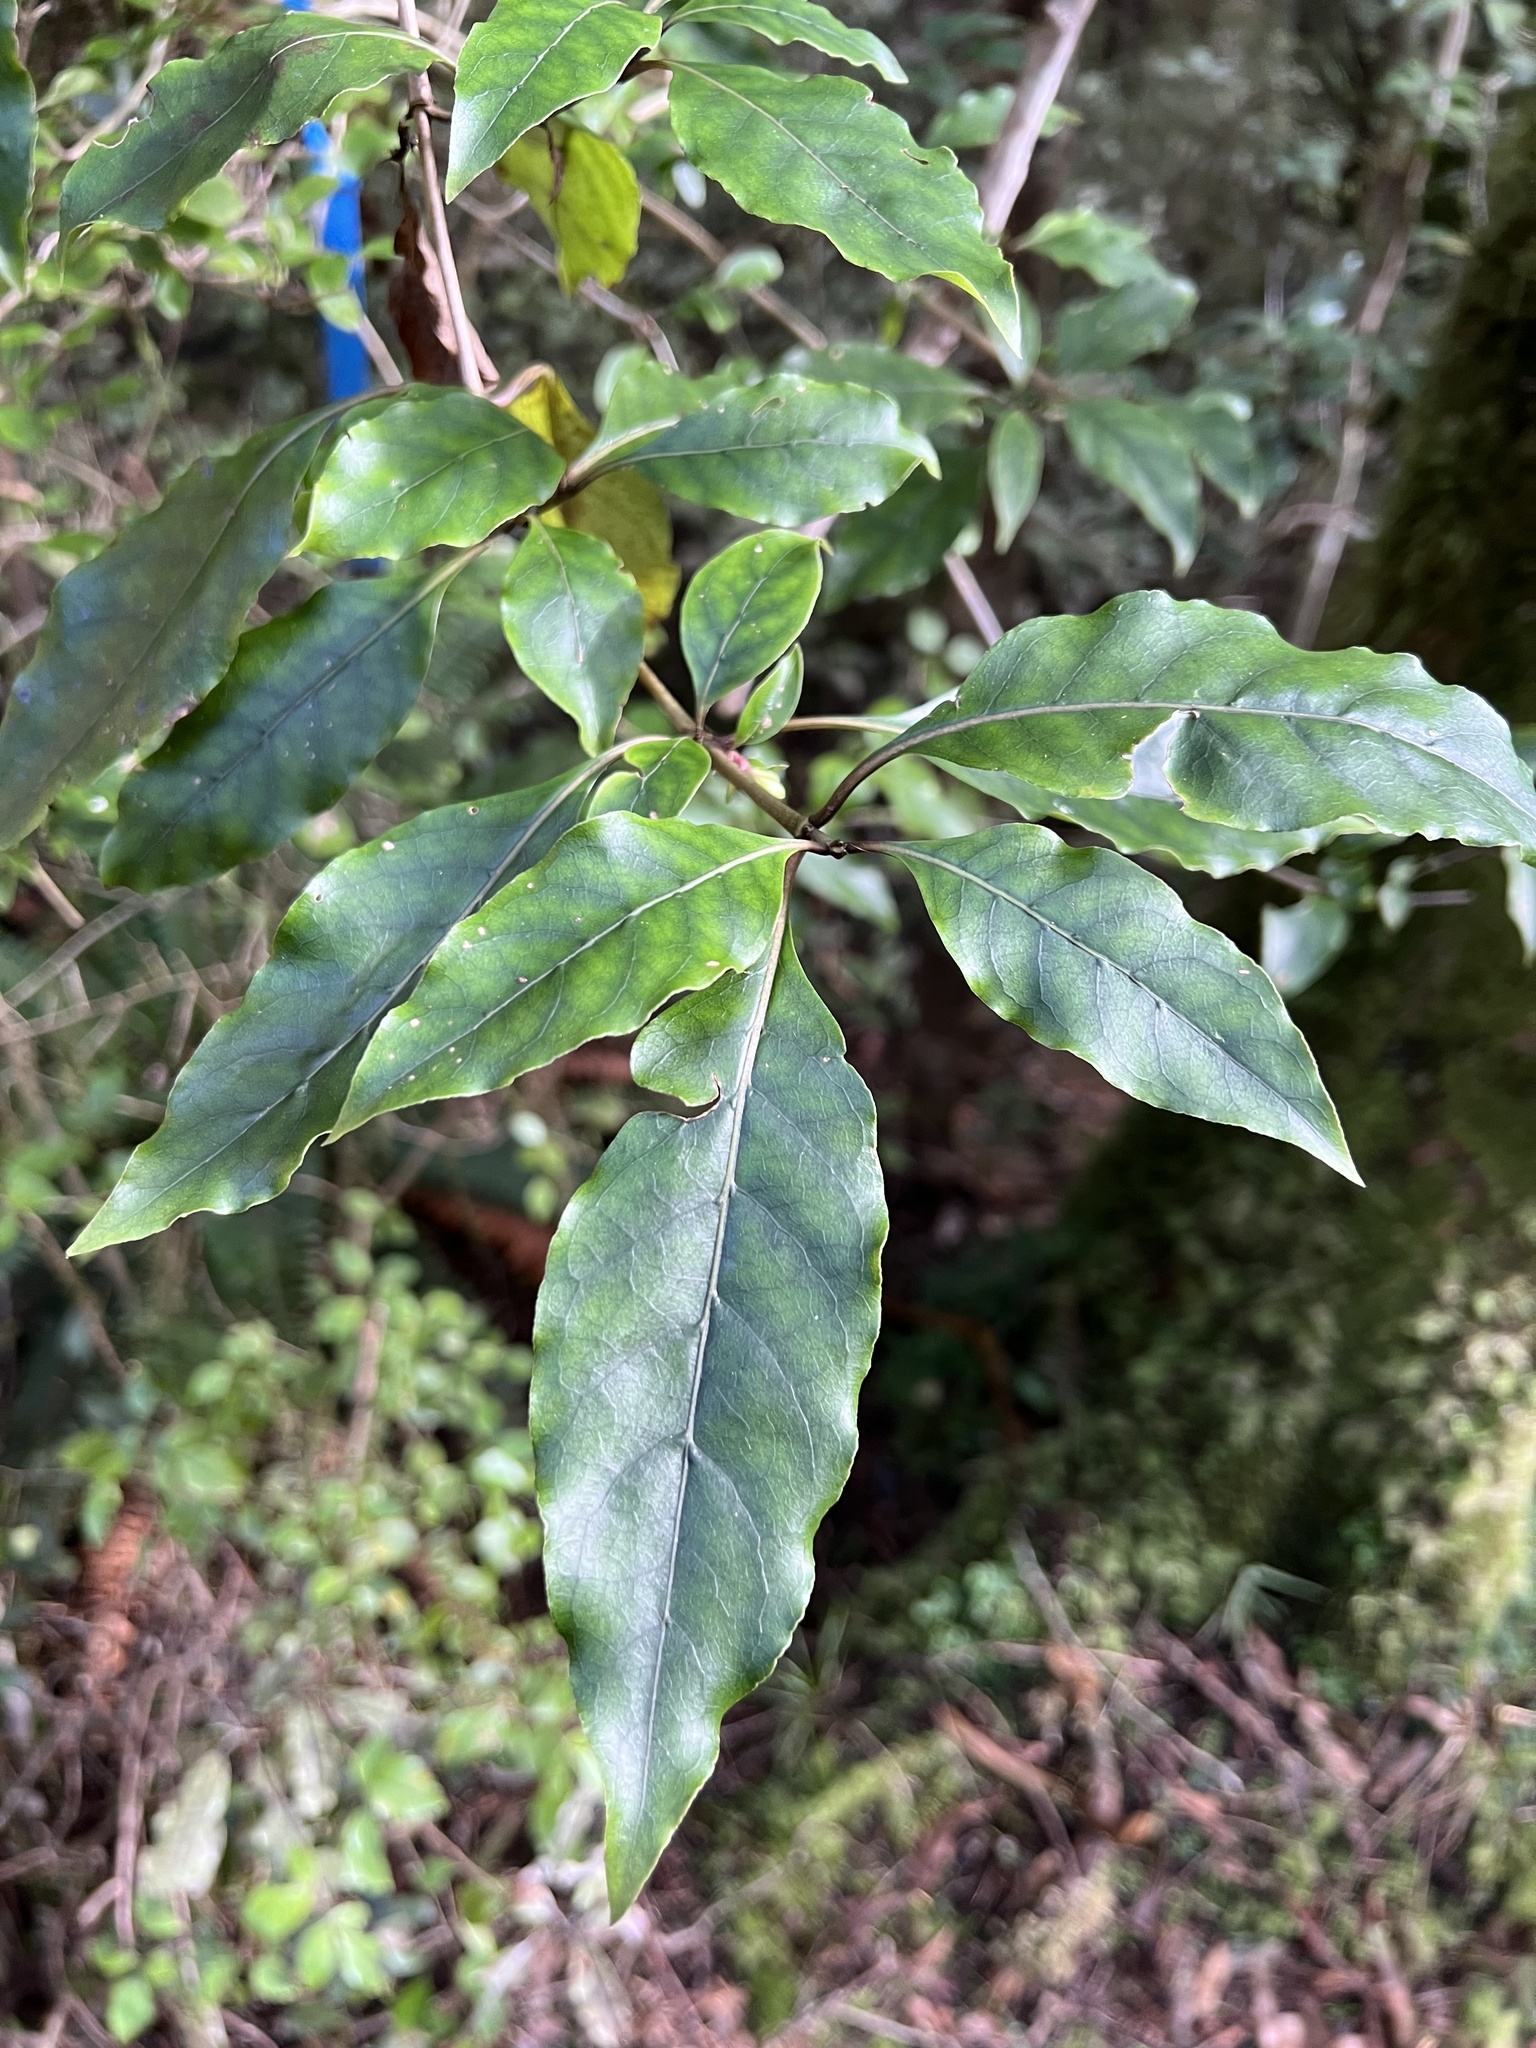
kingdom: Plantae
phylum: Tracheophyta
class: Magnoliopsida
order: Gentianales
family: Rubiaceae
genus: Coprosma
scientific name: Coprosma tenuifolia
